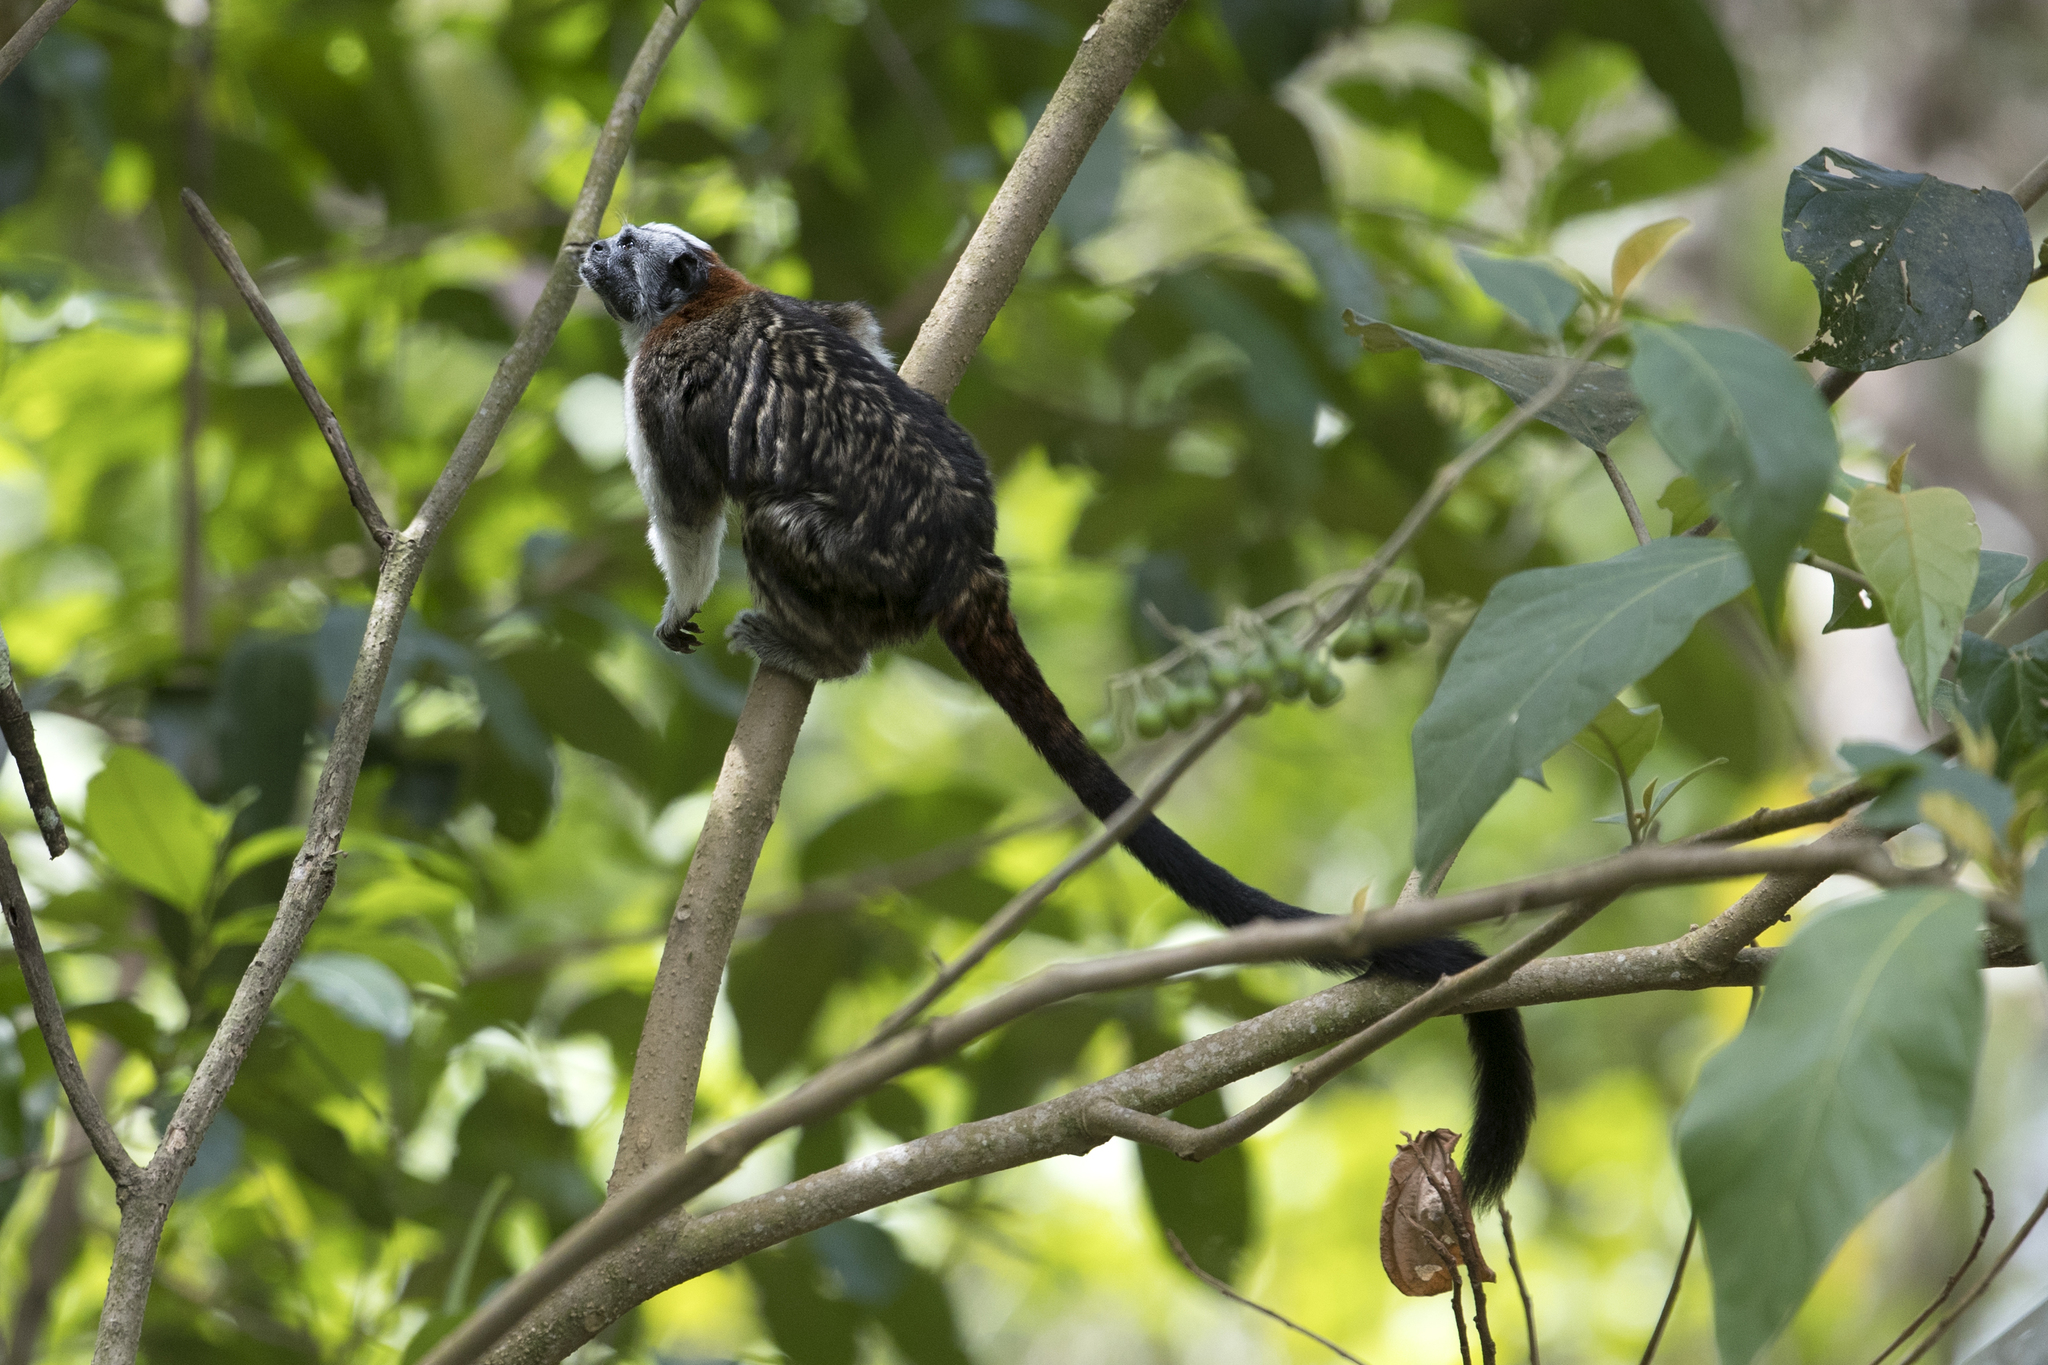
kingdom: Animalia
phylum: Chordata
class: Mammalia
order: Primates
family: Callitrichidae
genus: Saguinus
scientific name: Saguinus geoffroyi
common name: Geoffroy s tamarin
